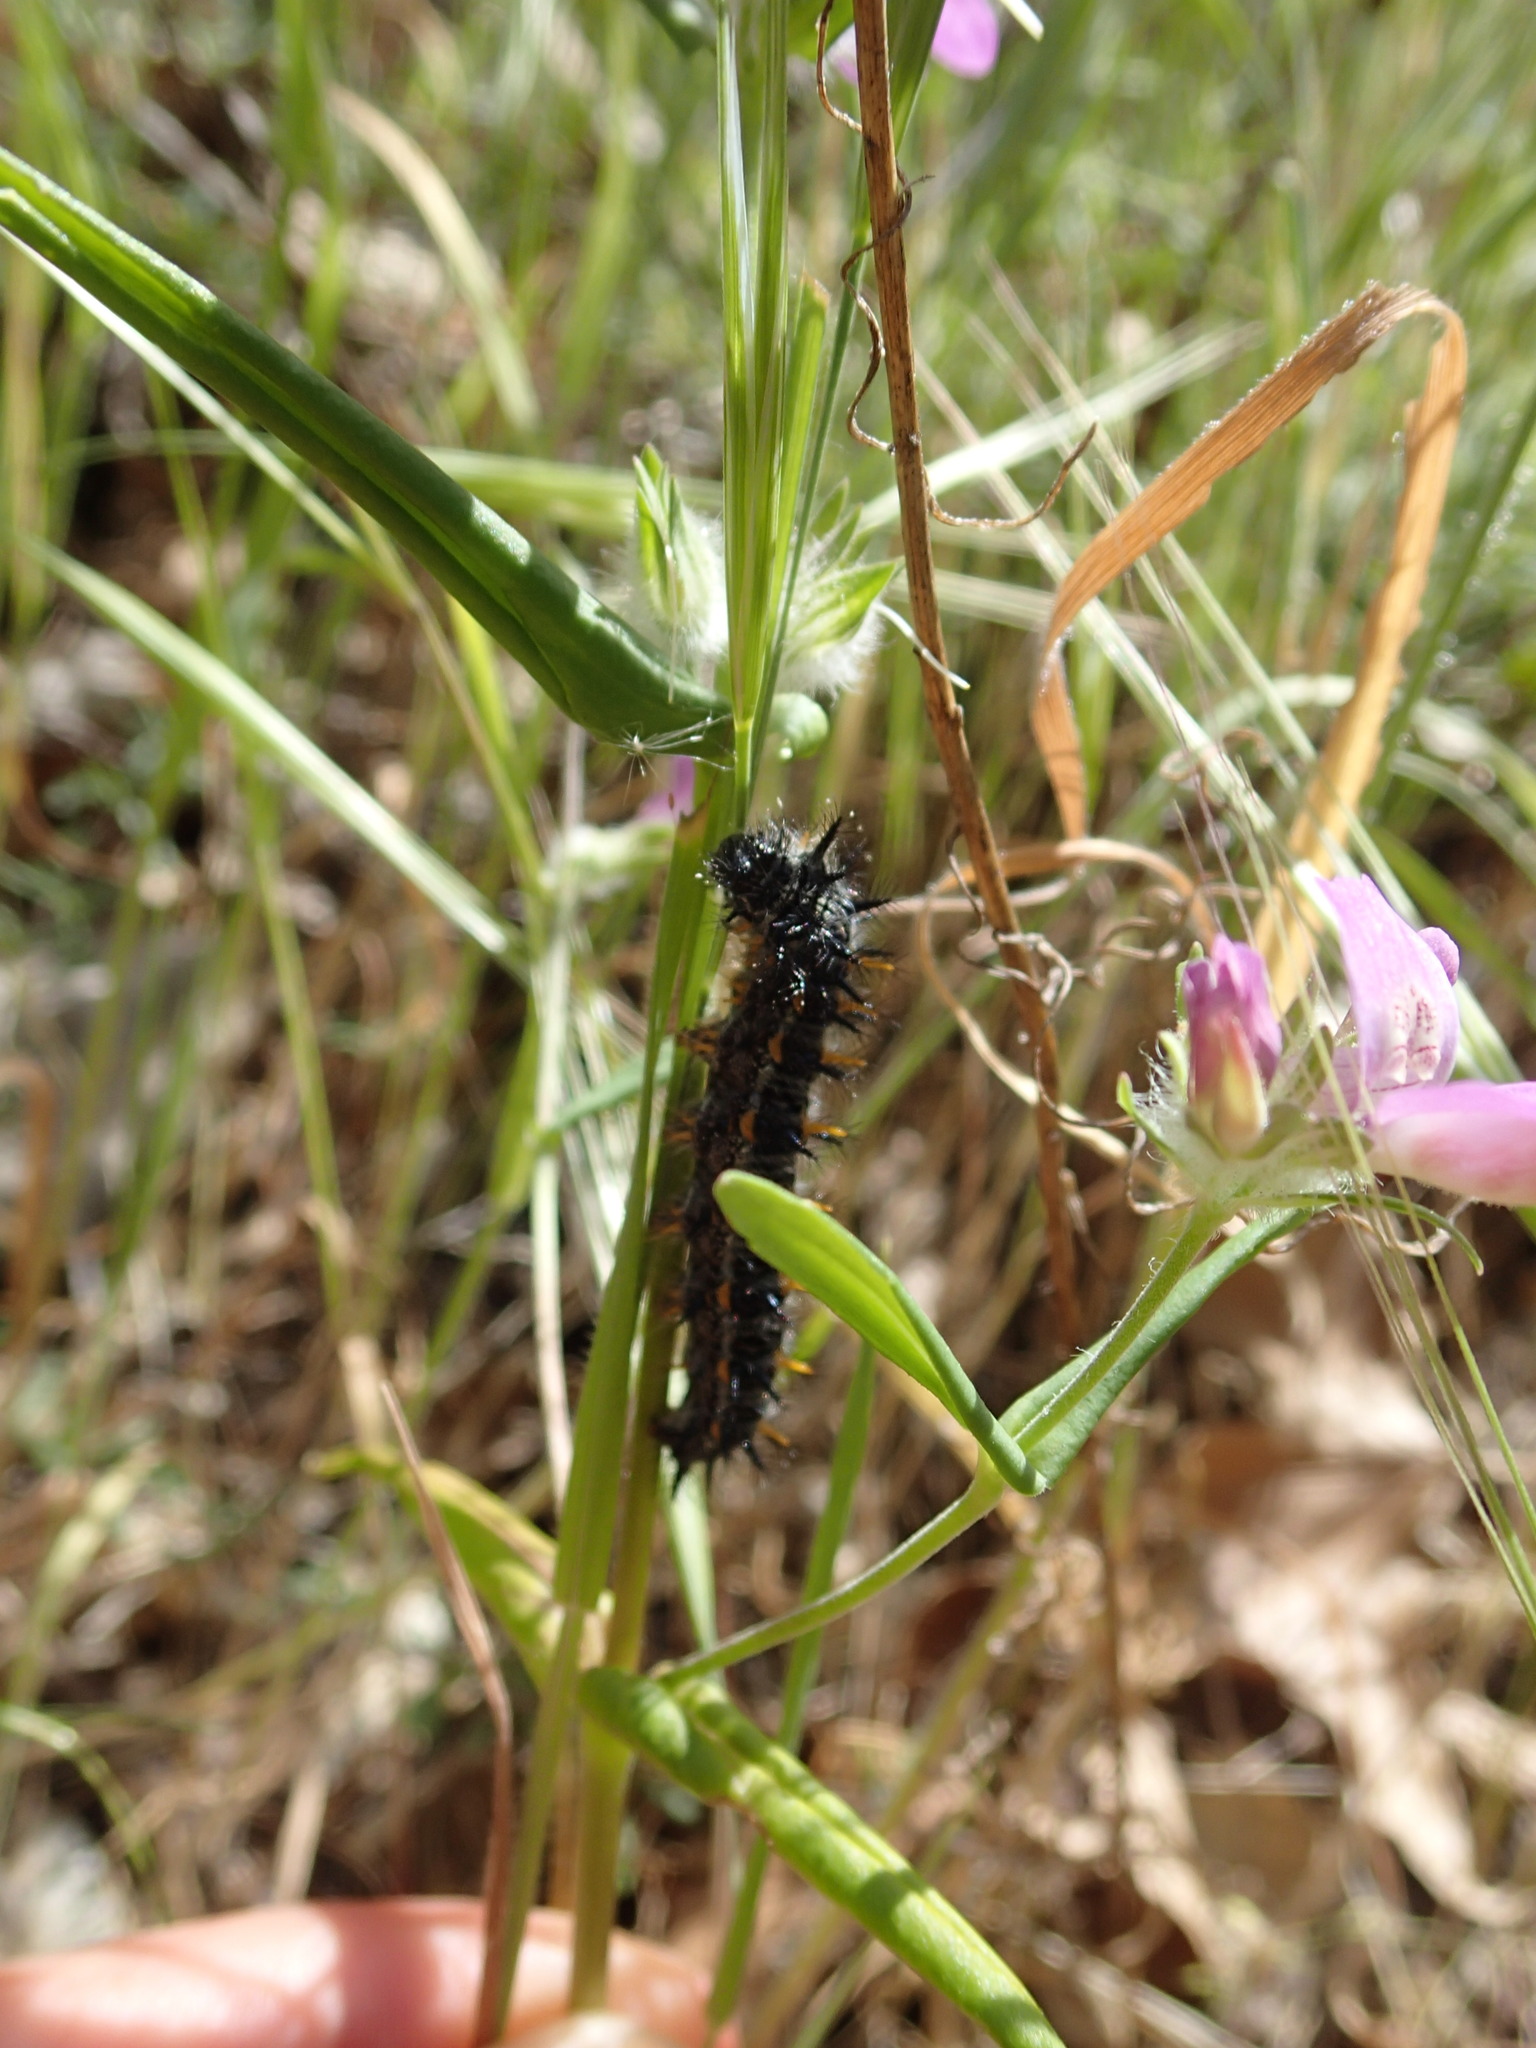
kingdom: Animalia
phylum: Arthropoda
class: Insecta
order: Lepidoptera
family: Nymphalidae
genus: Occidryas
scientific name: Occidryas chalcedona
